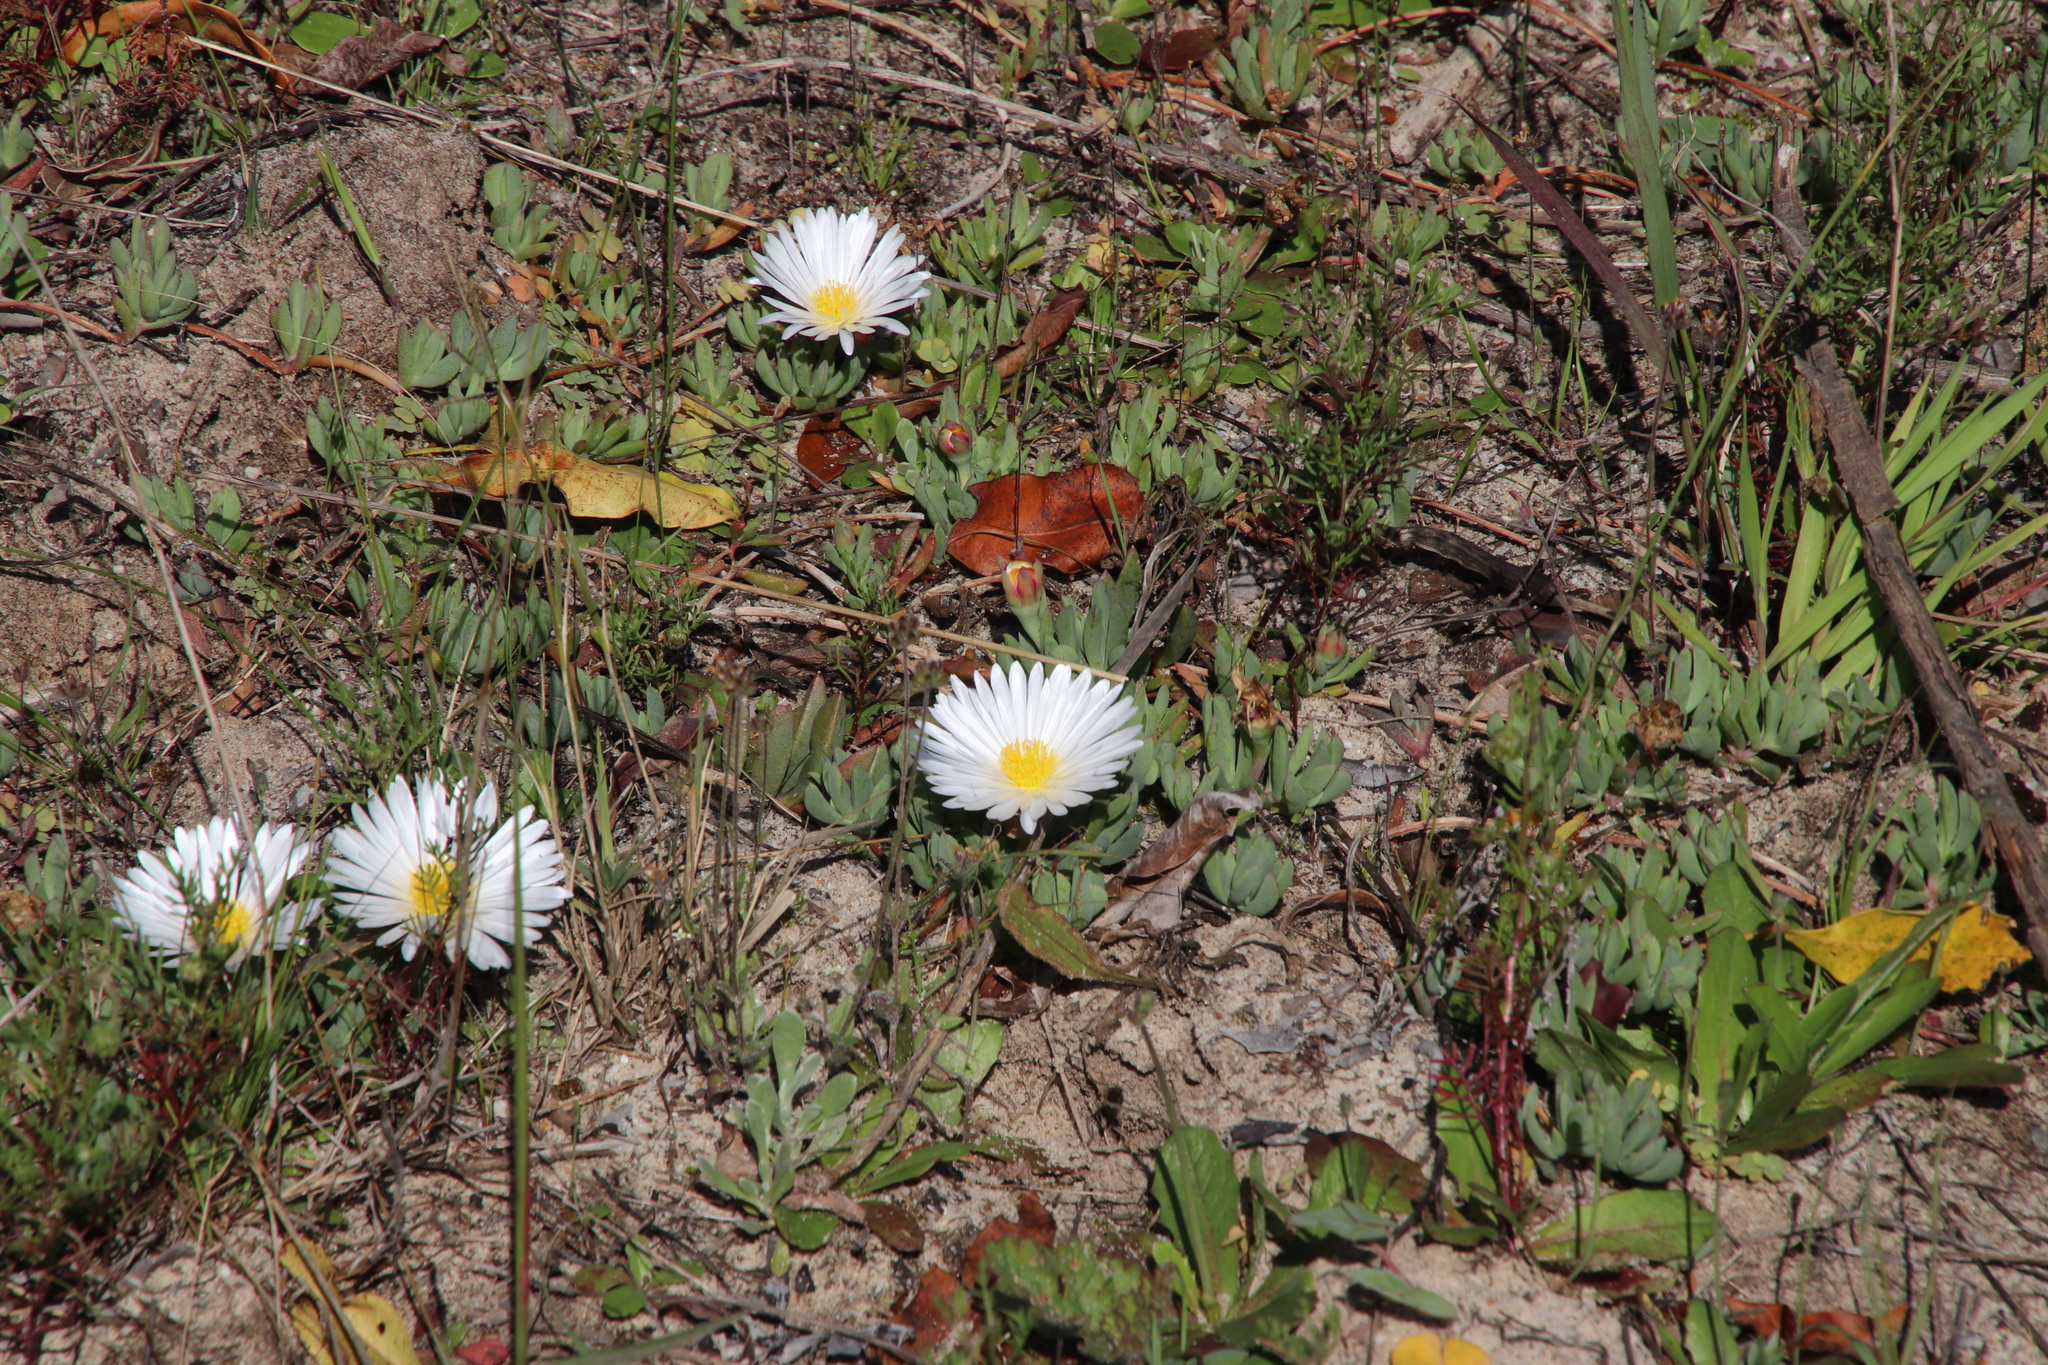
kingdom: Plantae
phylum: Tracheophyta
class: Magnoliopsida
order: Caryophyllales
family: Aizoaceae
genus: Lampranthus
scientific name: Lampranthus reptans
